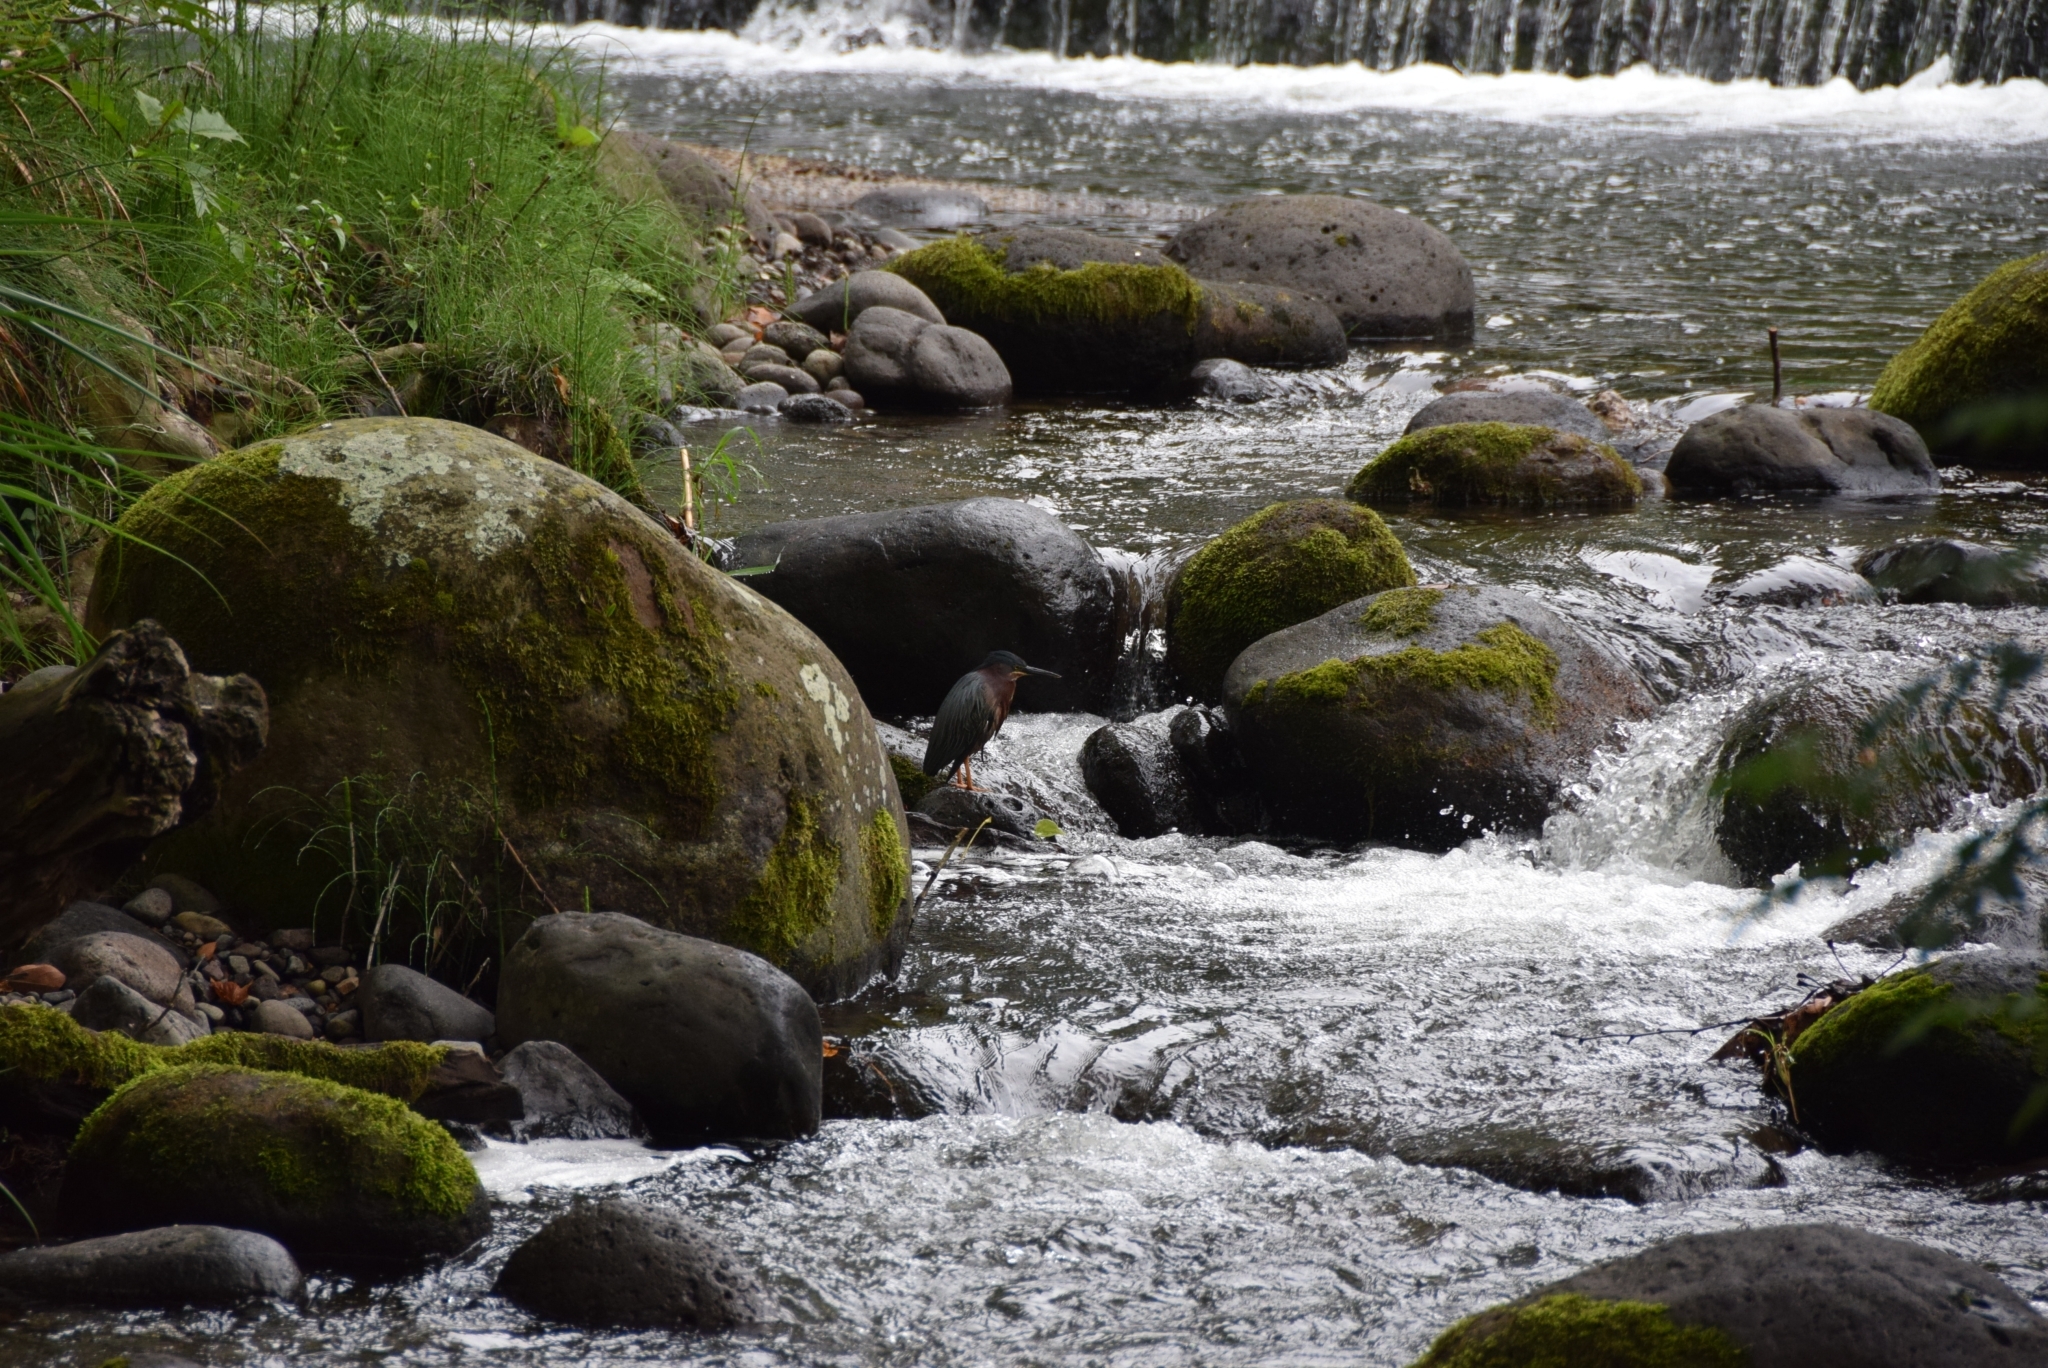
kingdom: Animalia
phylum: Chordata
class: Aves
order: Pelecaniformes
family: Ardeidae
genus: Butorides
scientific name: Butorides virescens
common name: Green heron
